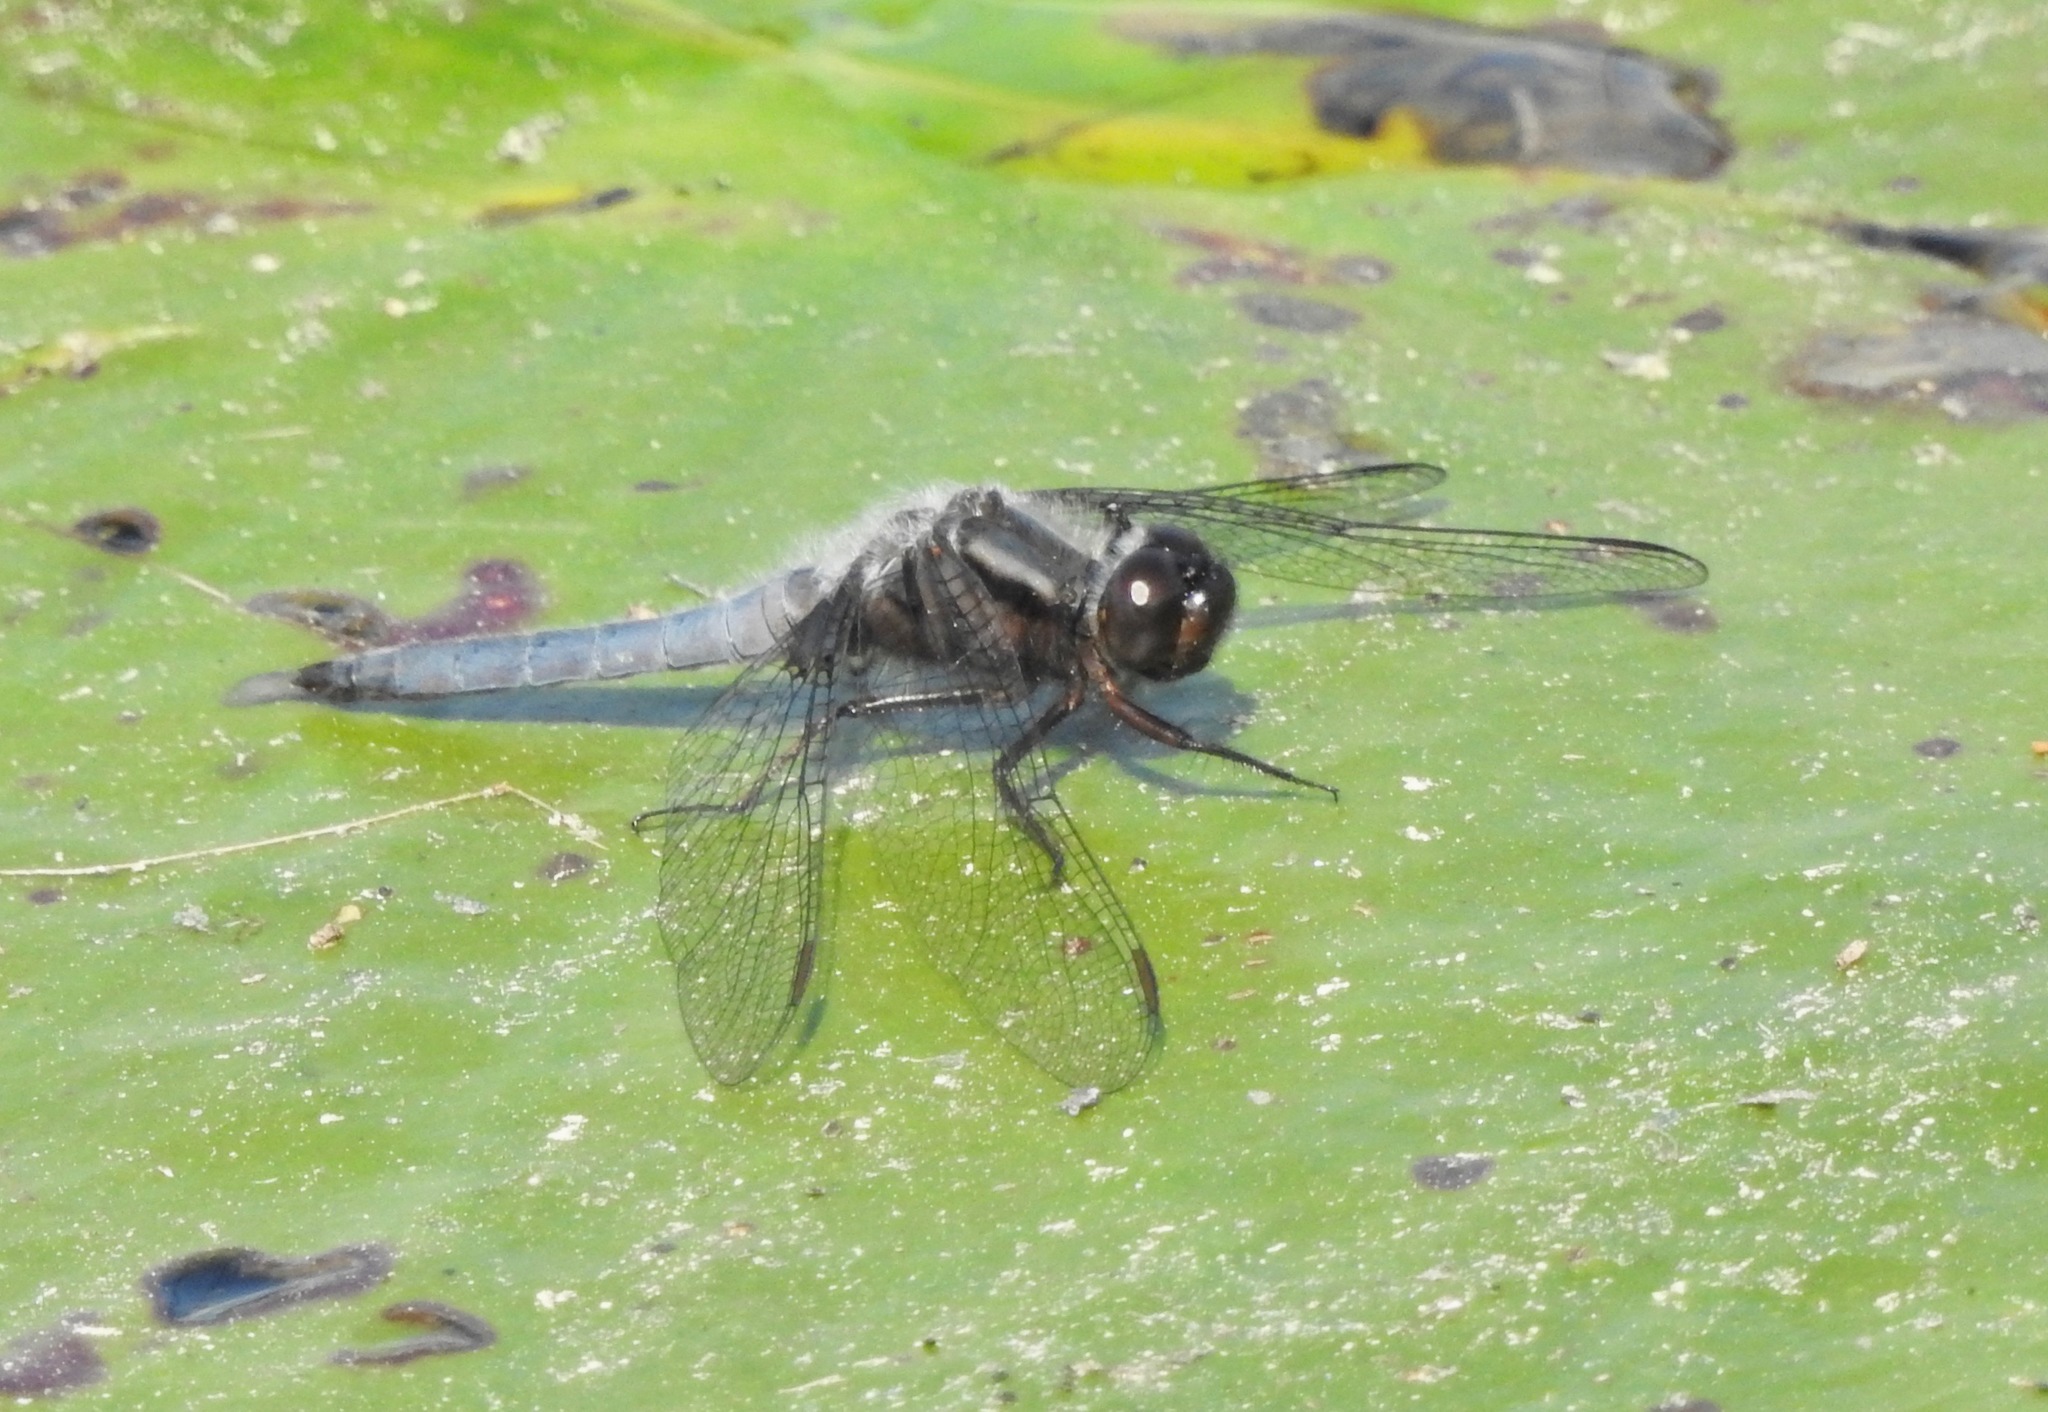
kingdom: Animalia
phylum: Arthropoda
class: Insecta
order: Odonata
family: Libellulidae
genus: Ladona
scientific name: Ladona deplanata
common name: Blue corporal
